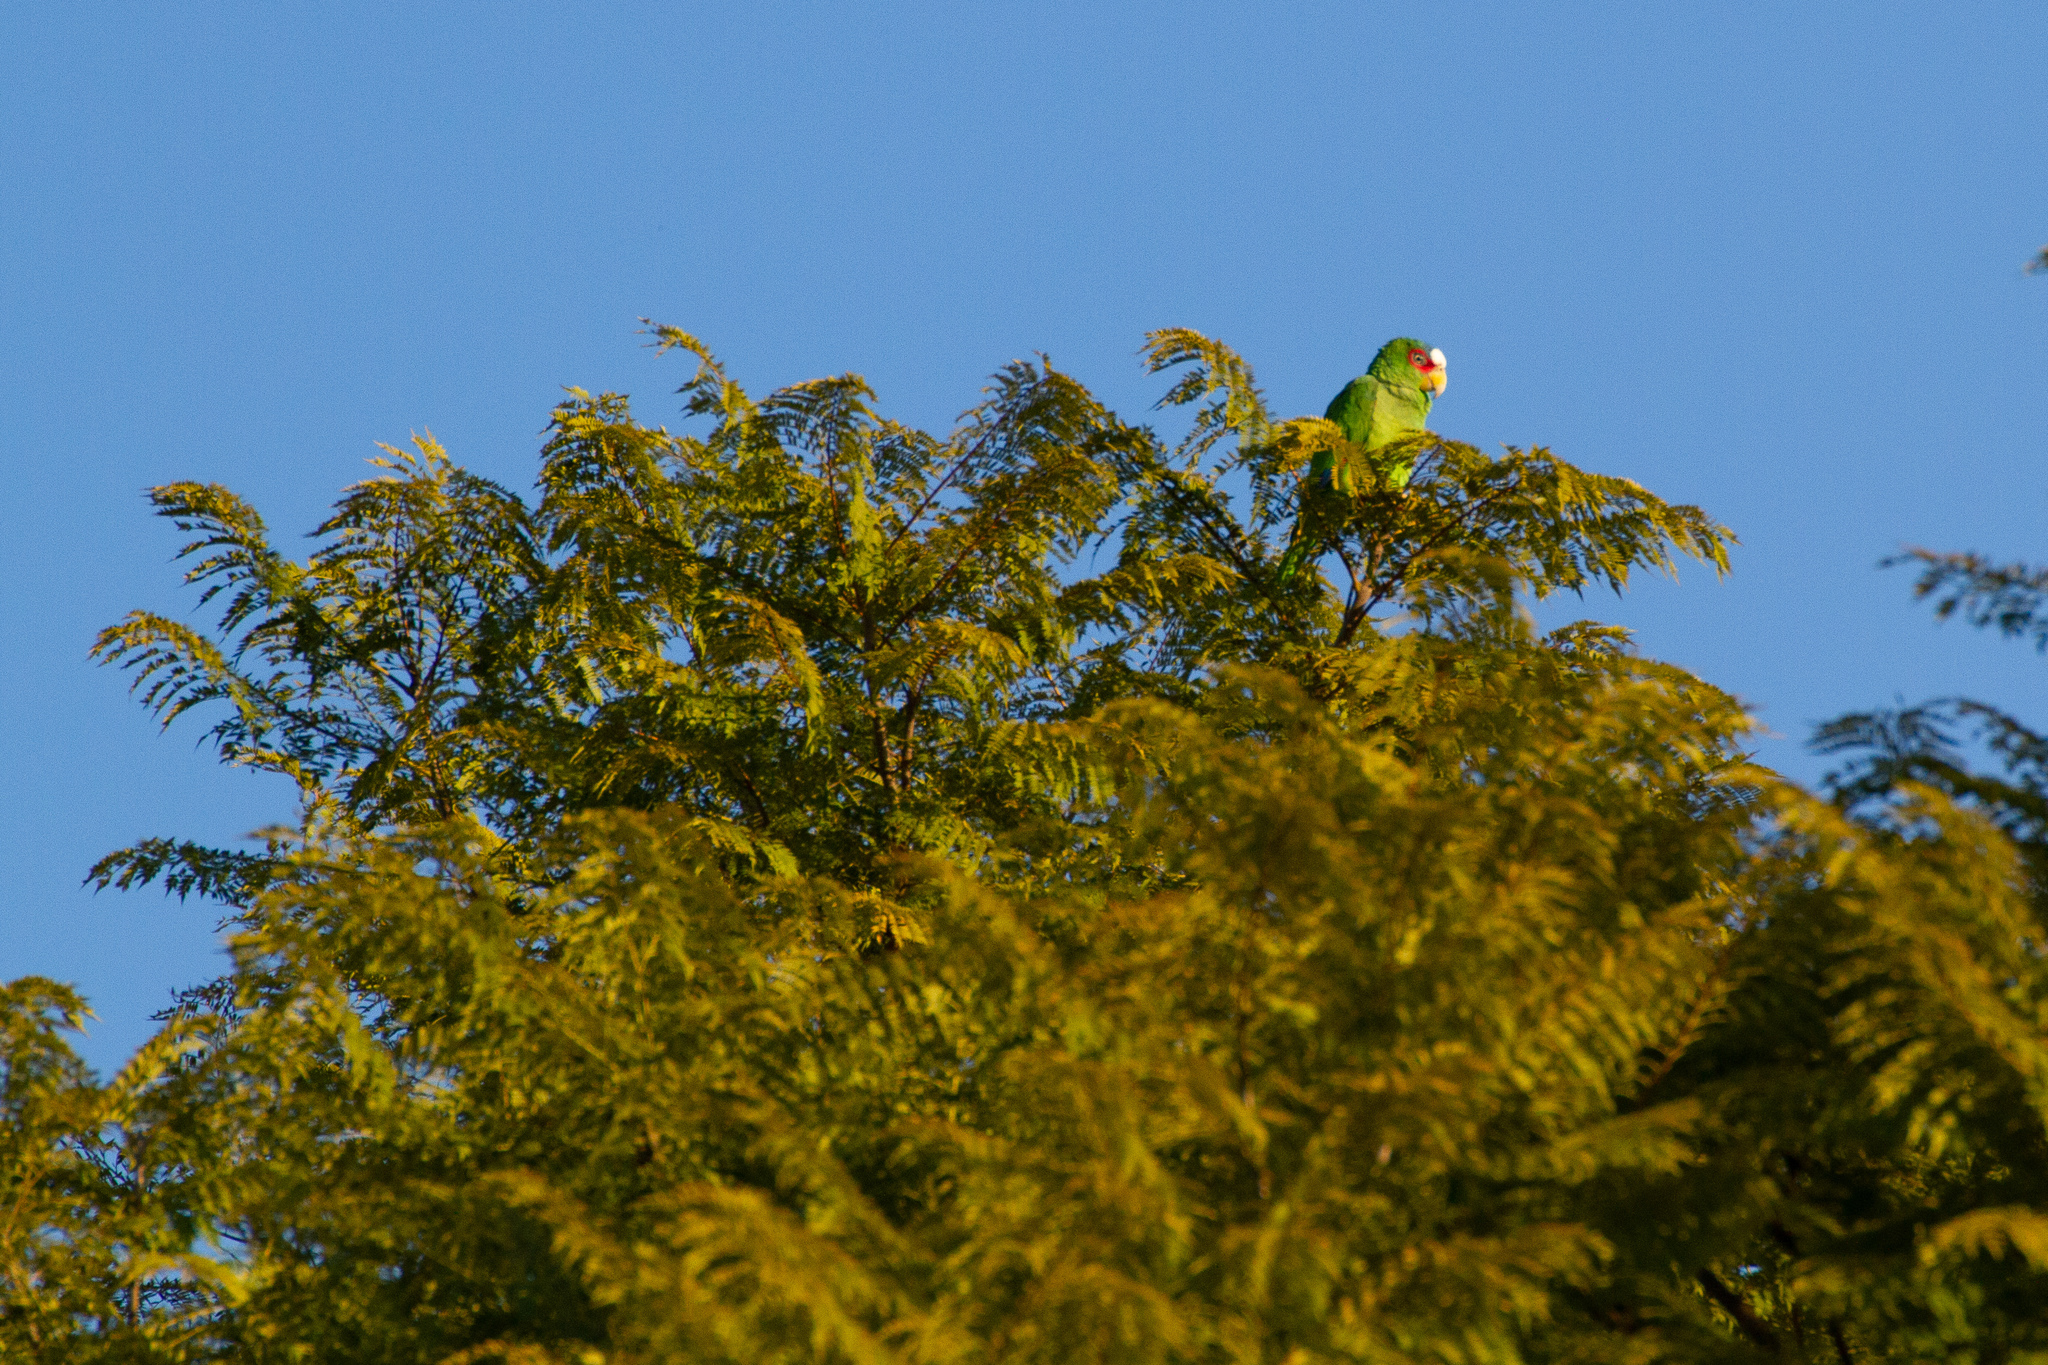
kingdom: Animalia
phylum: Chordata
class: Aves
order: Psittaciformes
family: Psittacidae
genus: Amazona
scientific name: Amazona albifrons
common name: White-fronted amazon
